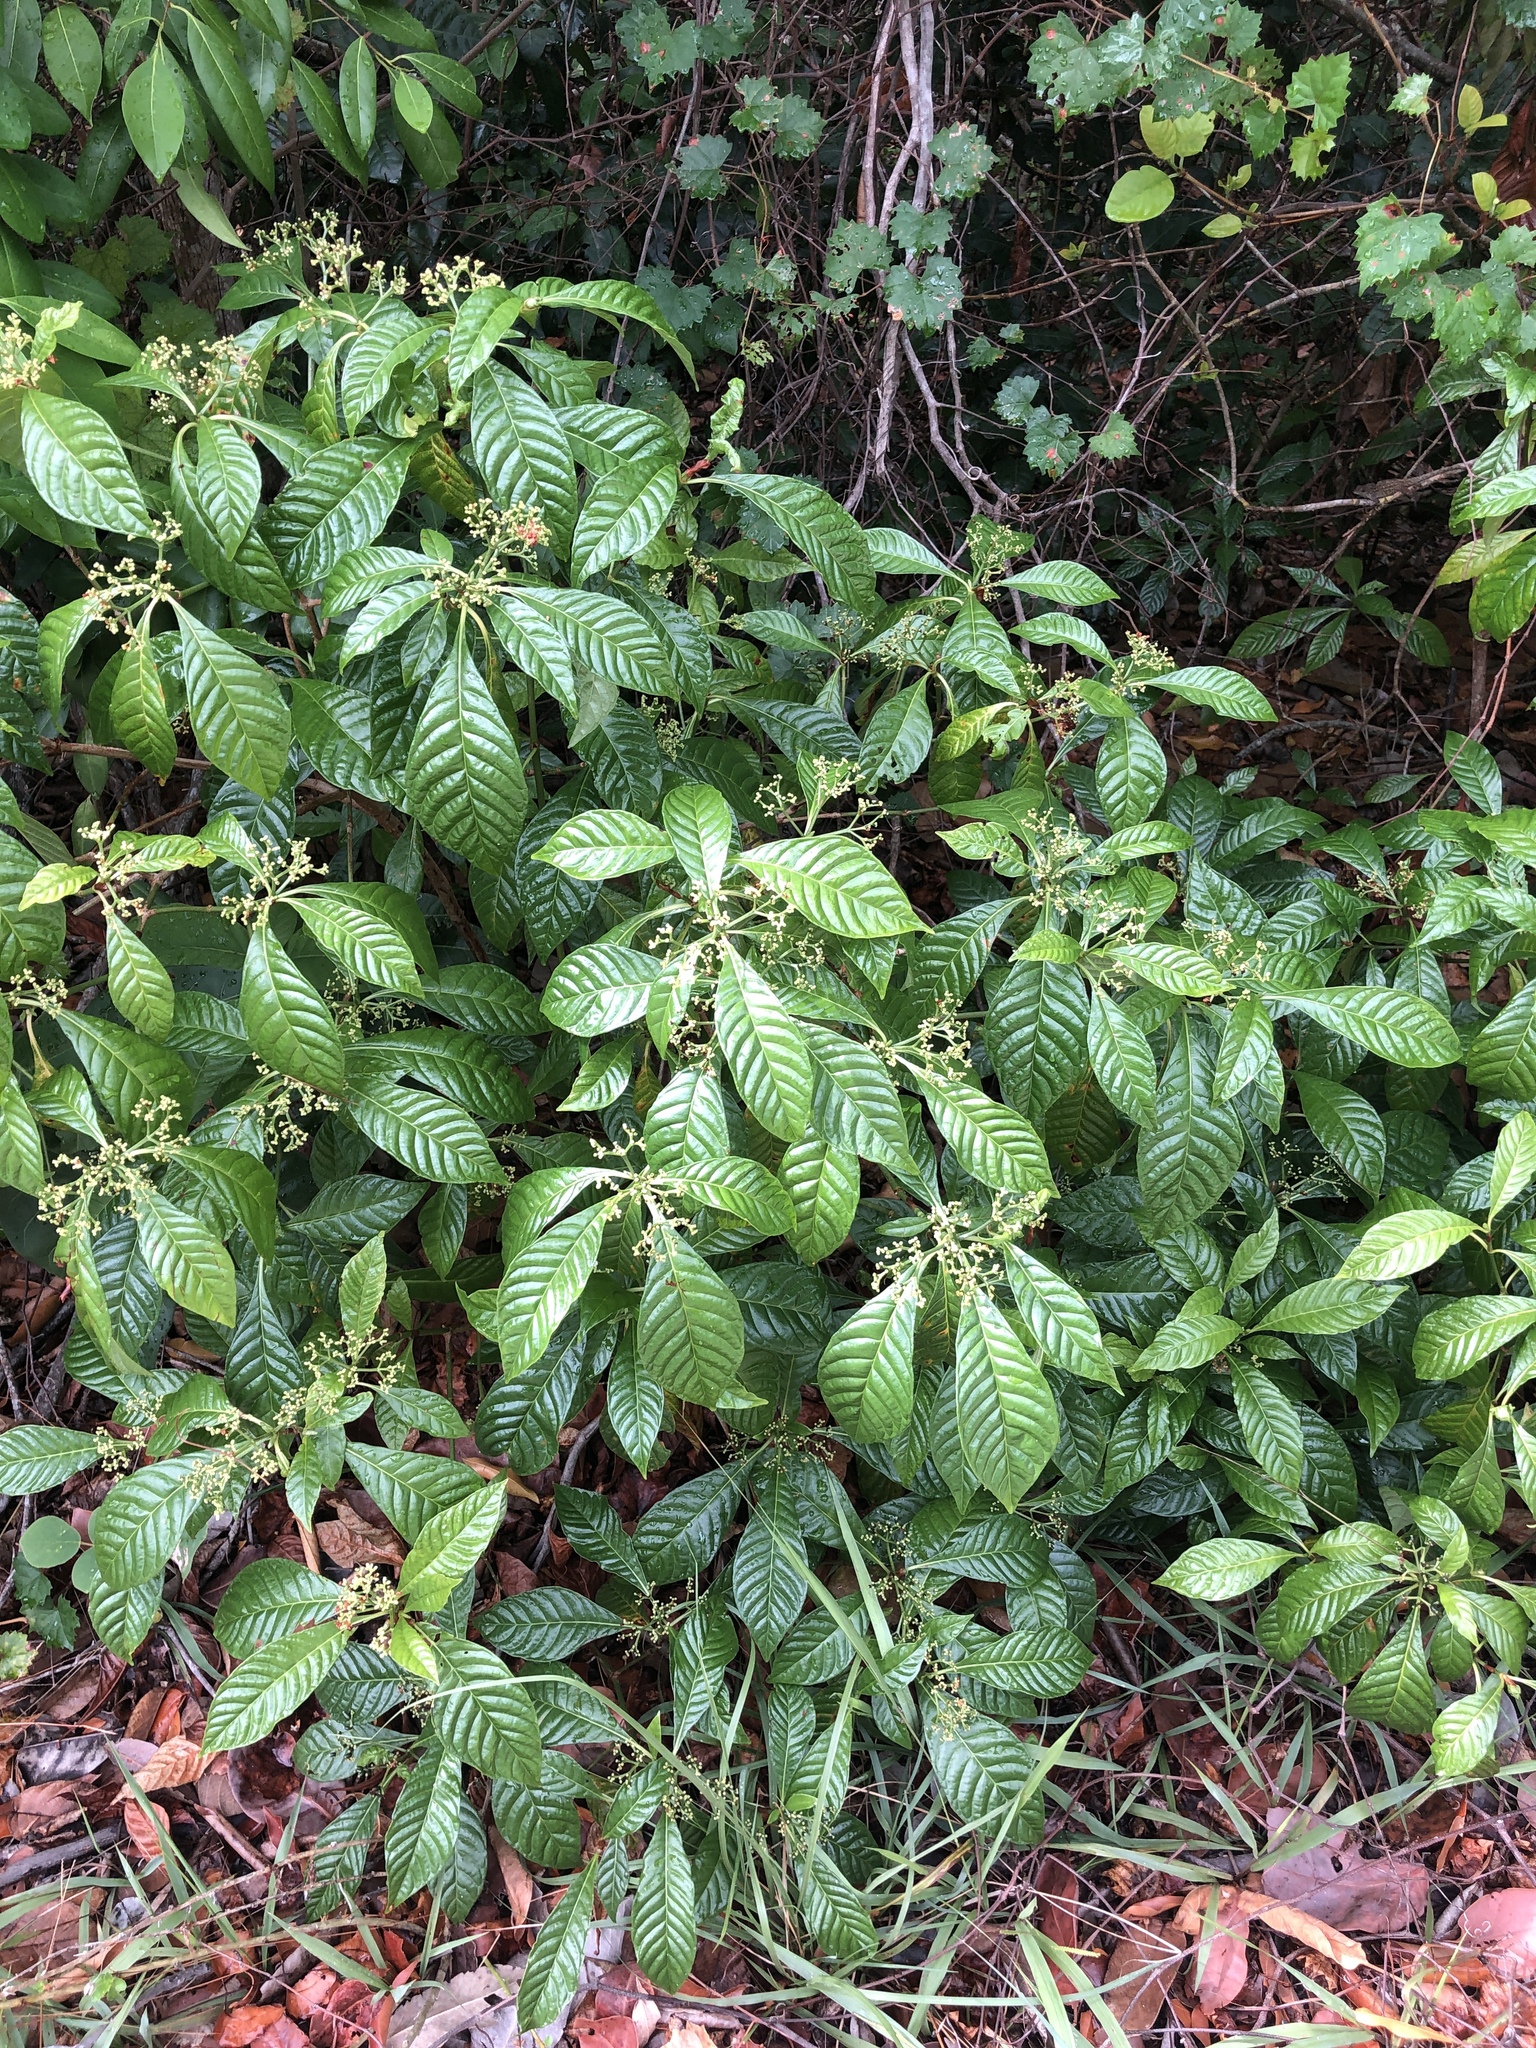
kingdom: Plantae
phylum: Tracheophyta
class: Magnoliopsida
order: Gentianales
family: Rubiaceae
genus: Psychotria
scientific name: Psychotria nervosa
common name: Bastard cankerberry
